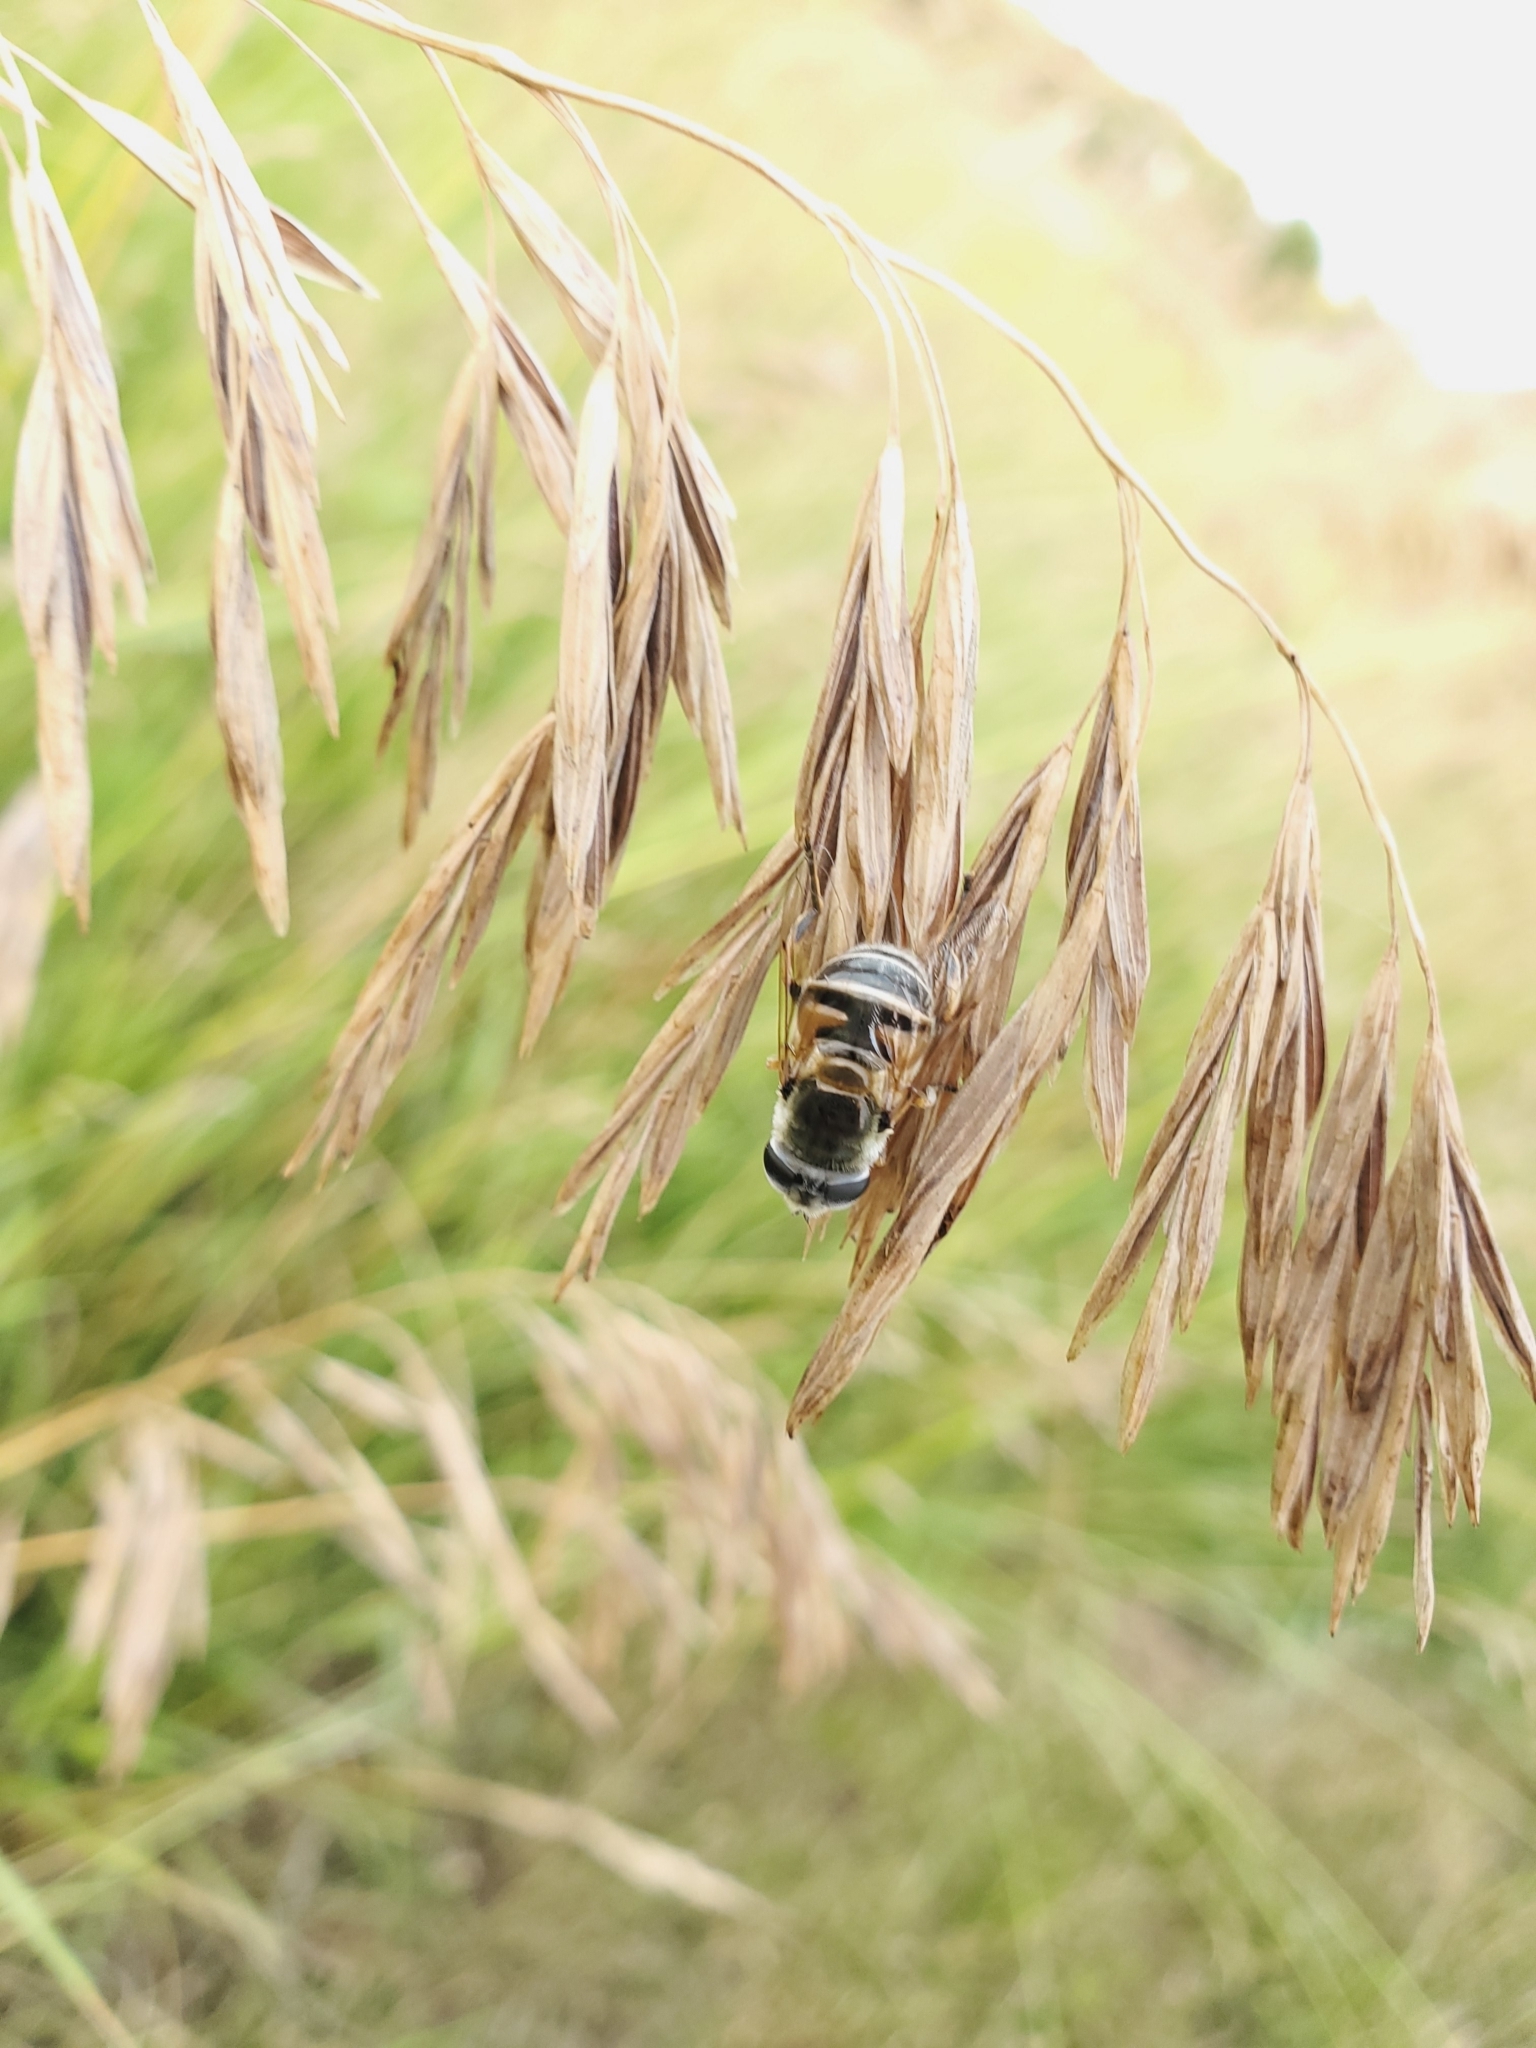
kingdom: Animalia
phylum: Arthropoda
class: Insecta
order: Diptera
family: Syrphidae
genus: Eristalis
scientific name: Eristalis stipator
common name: Yellow-shouldered drone fly
